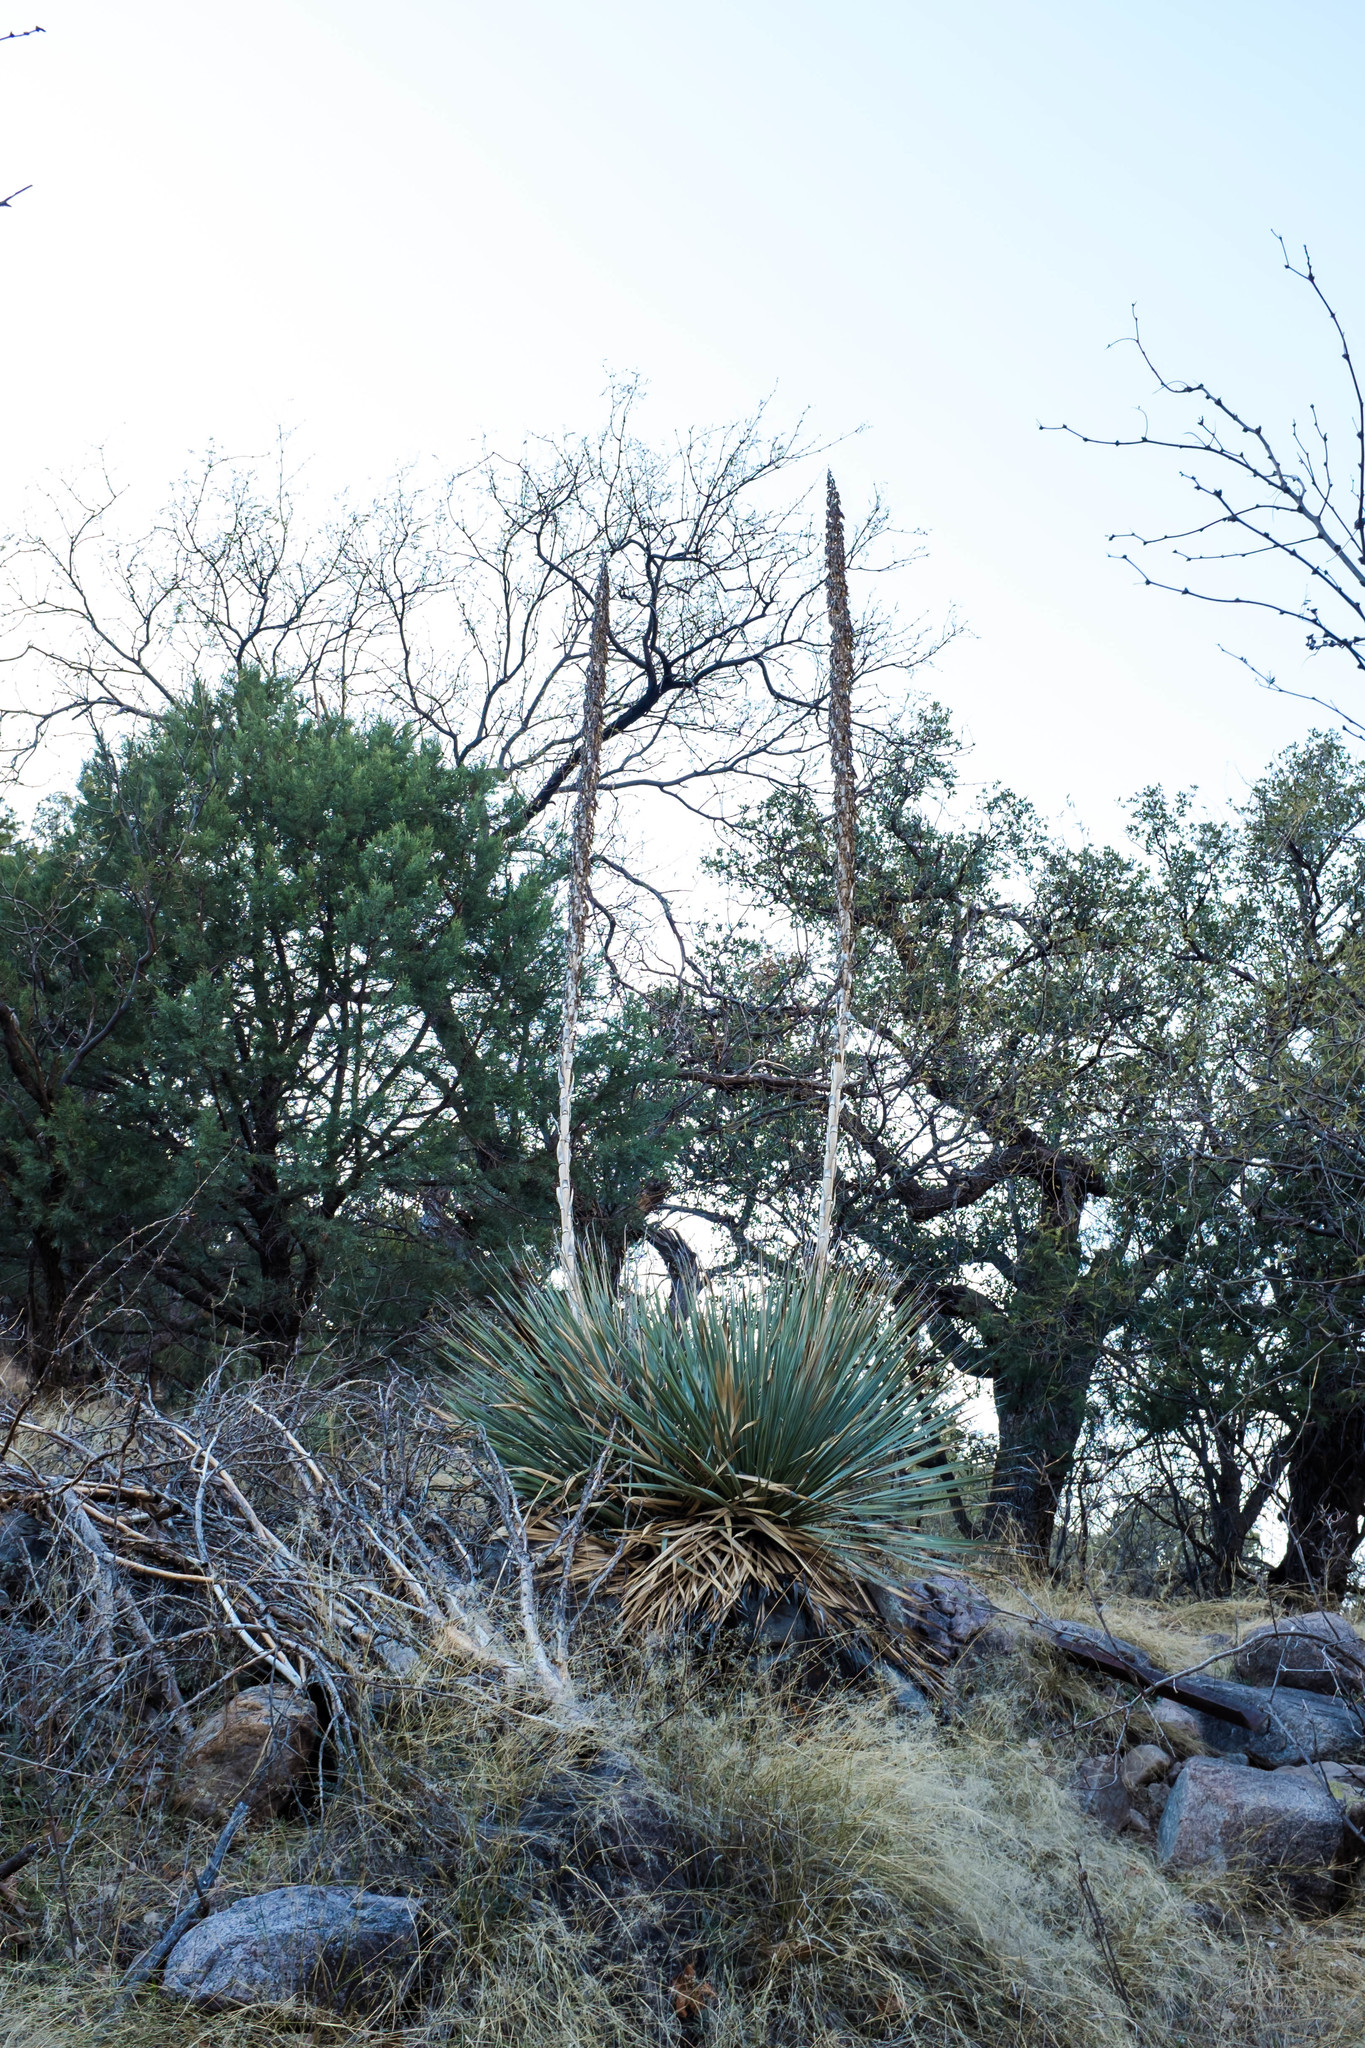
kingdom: Plantae
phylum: Tracheophyta
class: Liliopsida
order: Asparagales
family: Asparagaceae
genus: Dasylirion
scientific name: Dasylirion wheeleri
